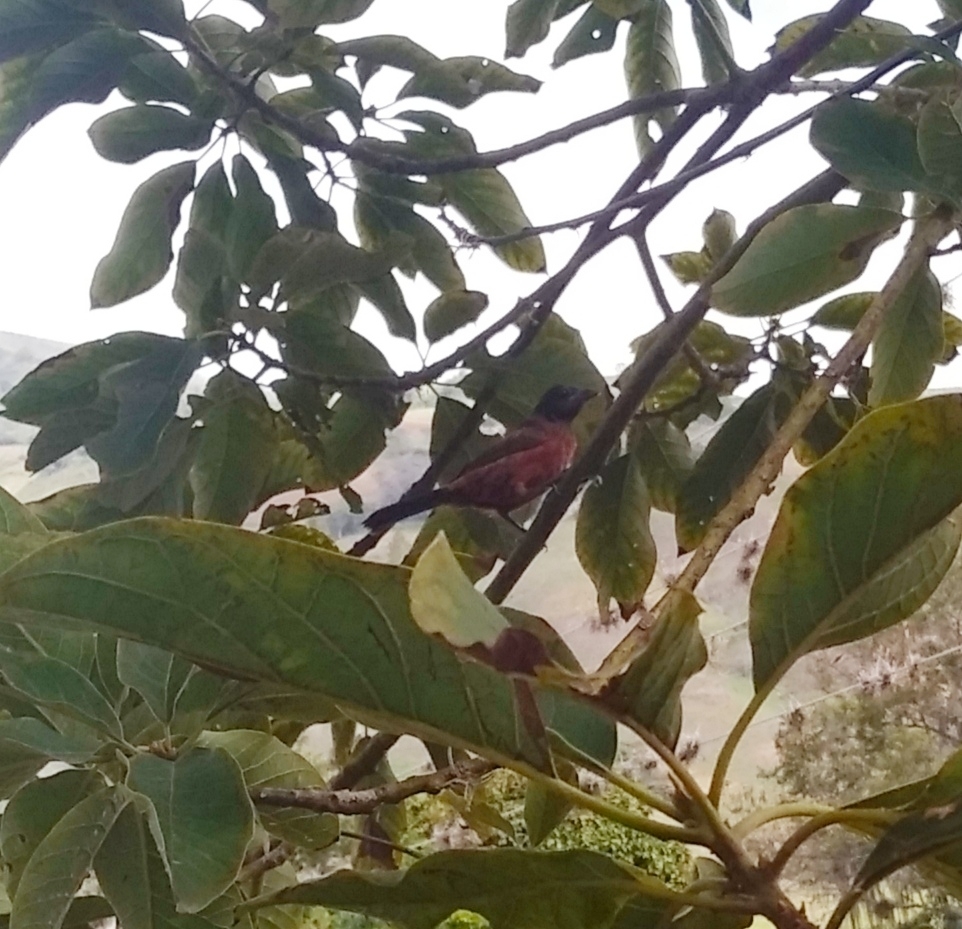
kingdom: Animalia
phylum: Chordata
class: Aves
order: Passeriformes
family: Thraupidae
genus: Ramphocelus
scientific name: Ramphocelus dimidiatus
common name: Crimson-backed tanager
